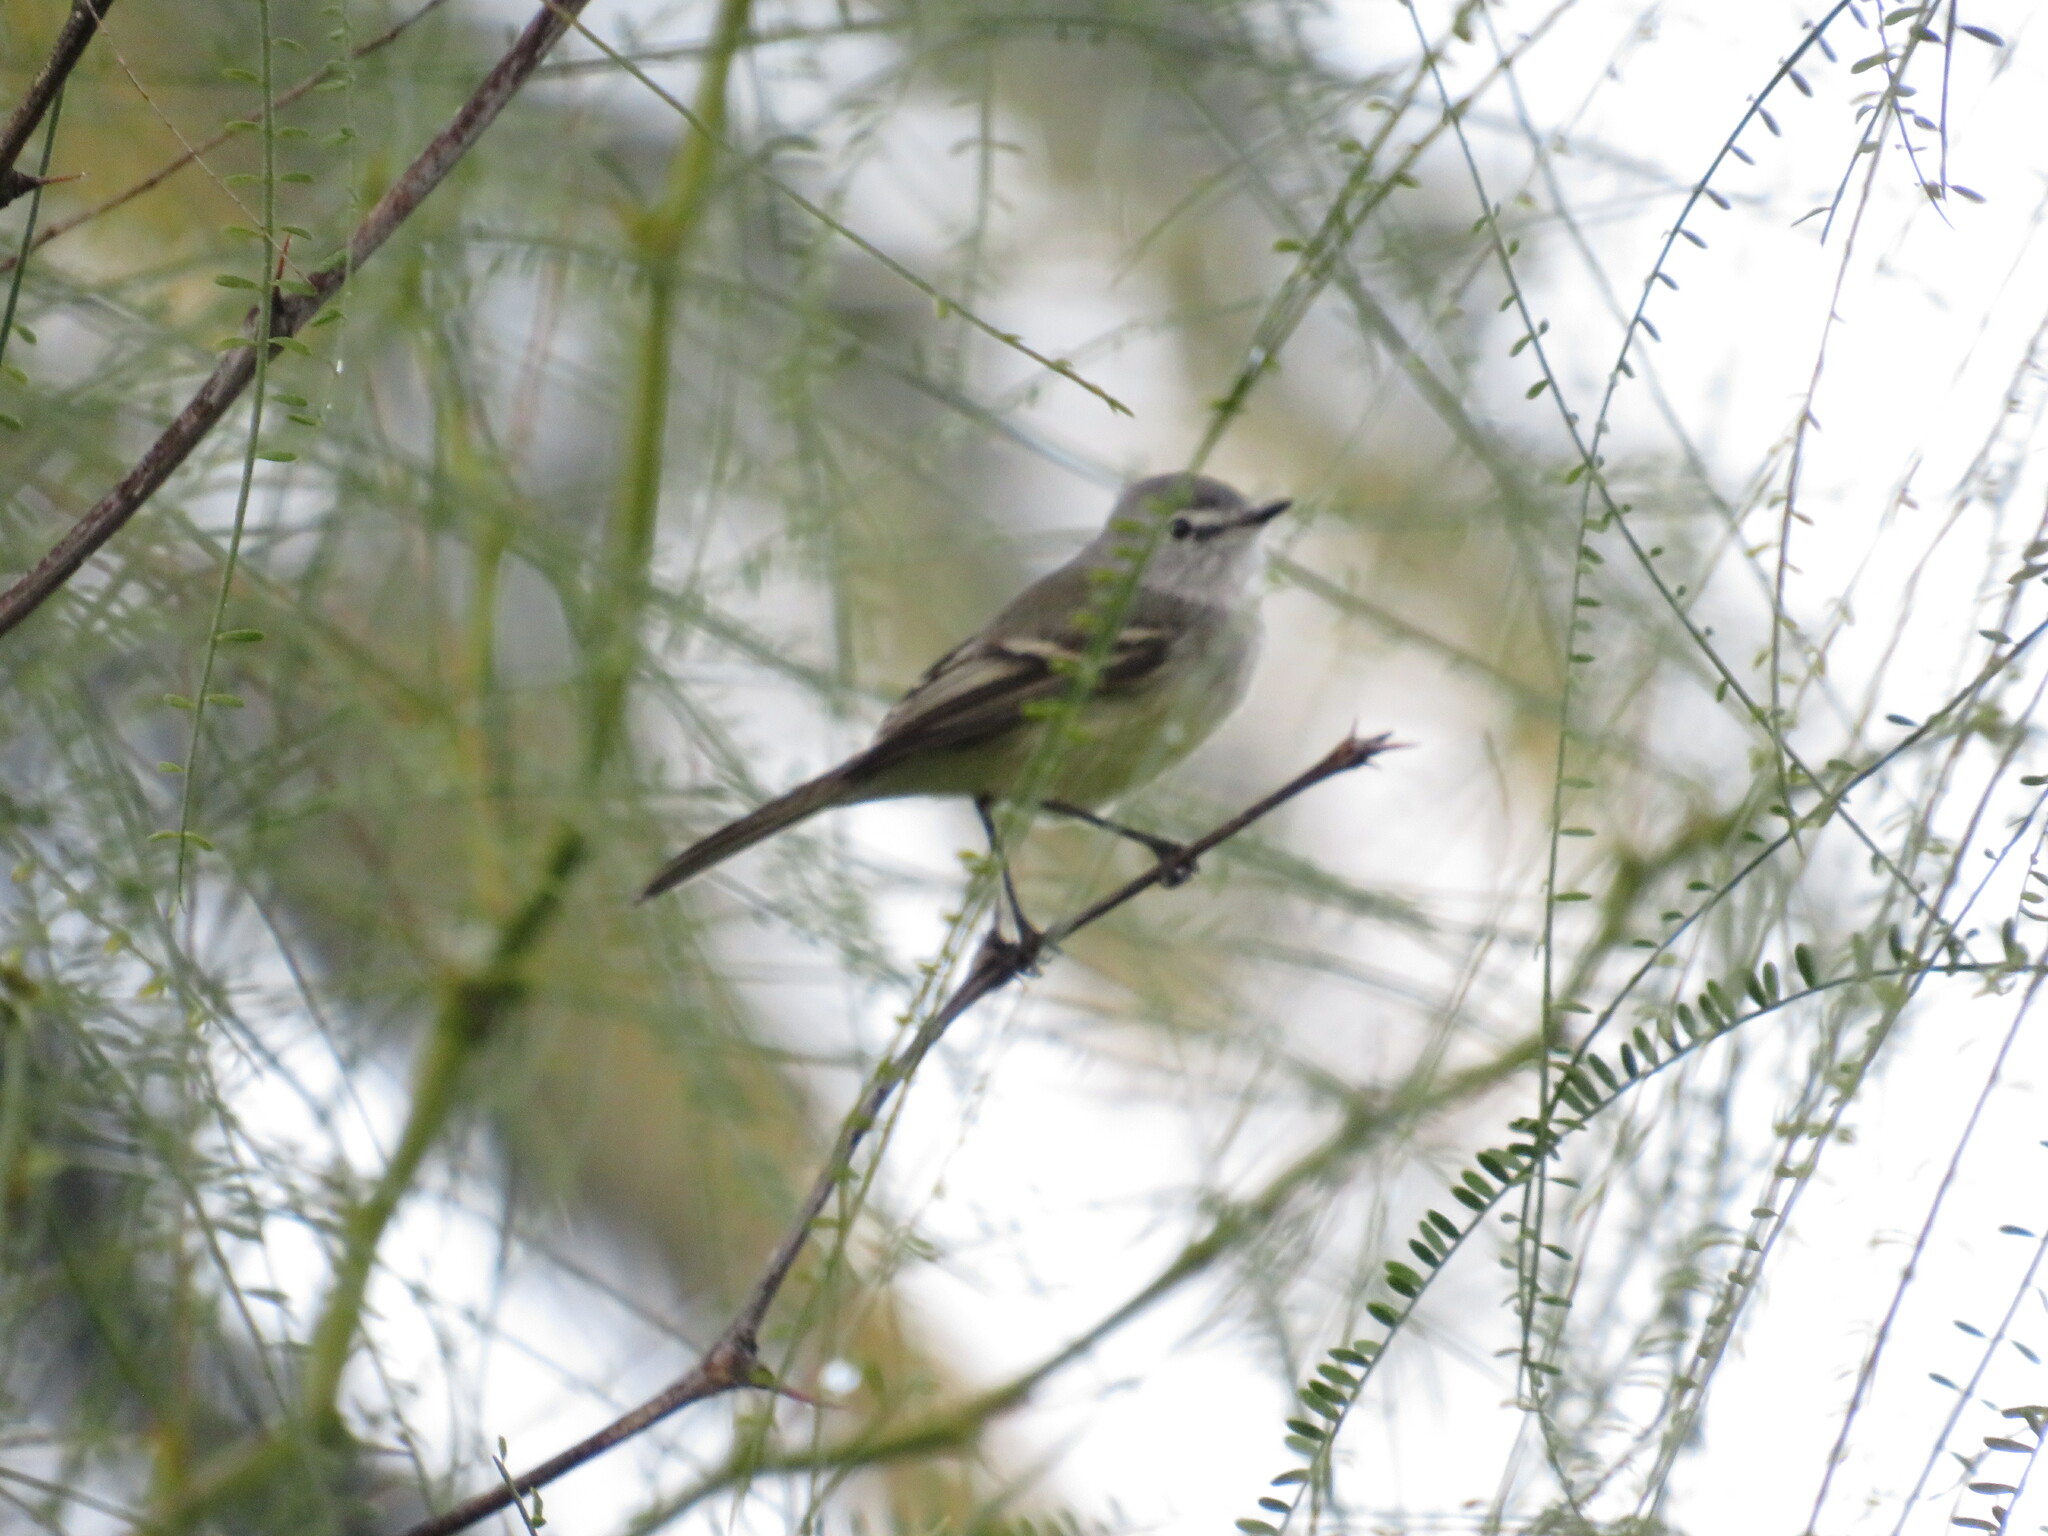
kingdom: Animalia
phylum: Chordata
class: Aves
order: Passeriformes
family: Tyrannidae
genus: Serpophaga
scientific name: Serpophaga subcristata
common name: White-crested tyrannulet
